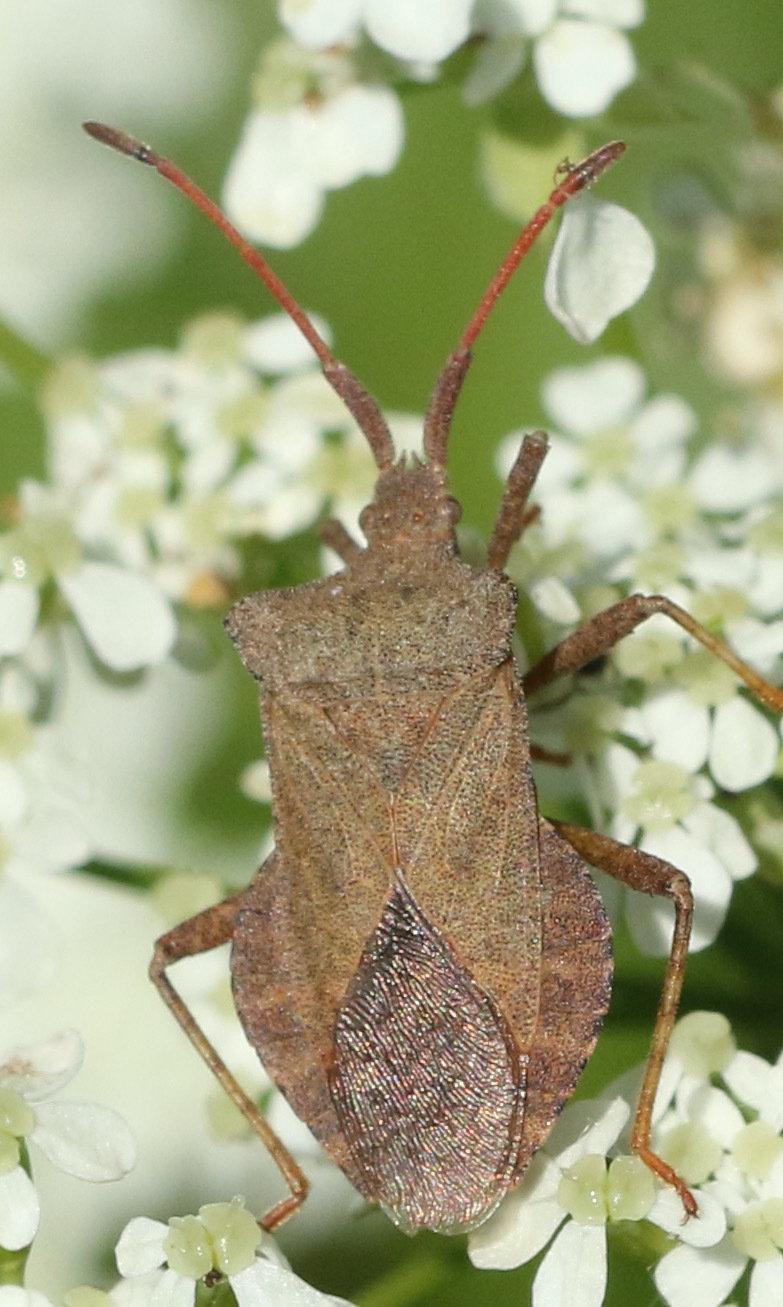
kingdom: Animalia
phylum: Arthropoda
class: Insecta
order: Hemiptera
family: Coreidae
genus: Coreus
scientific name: Coreus marginatus
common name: Dock bug
